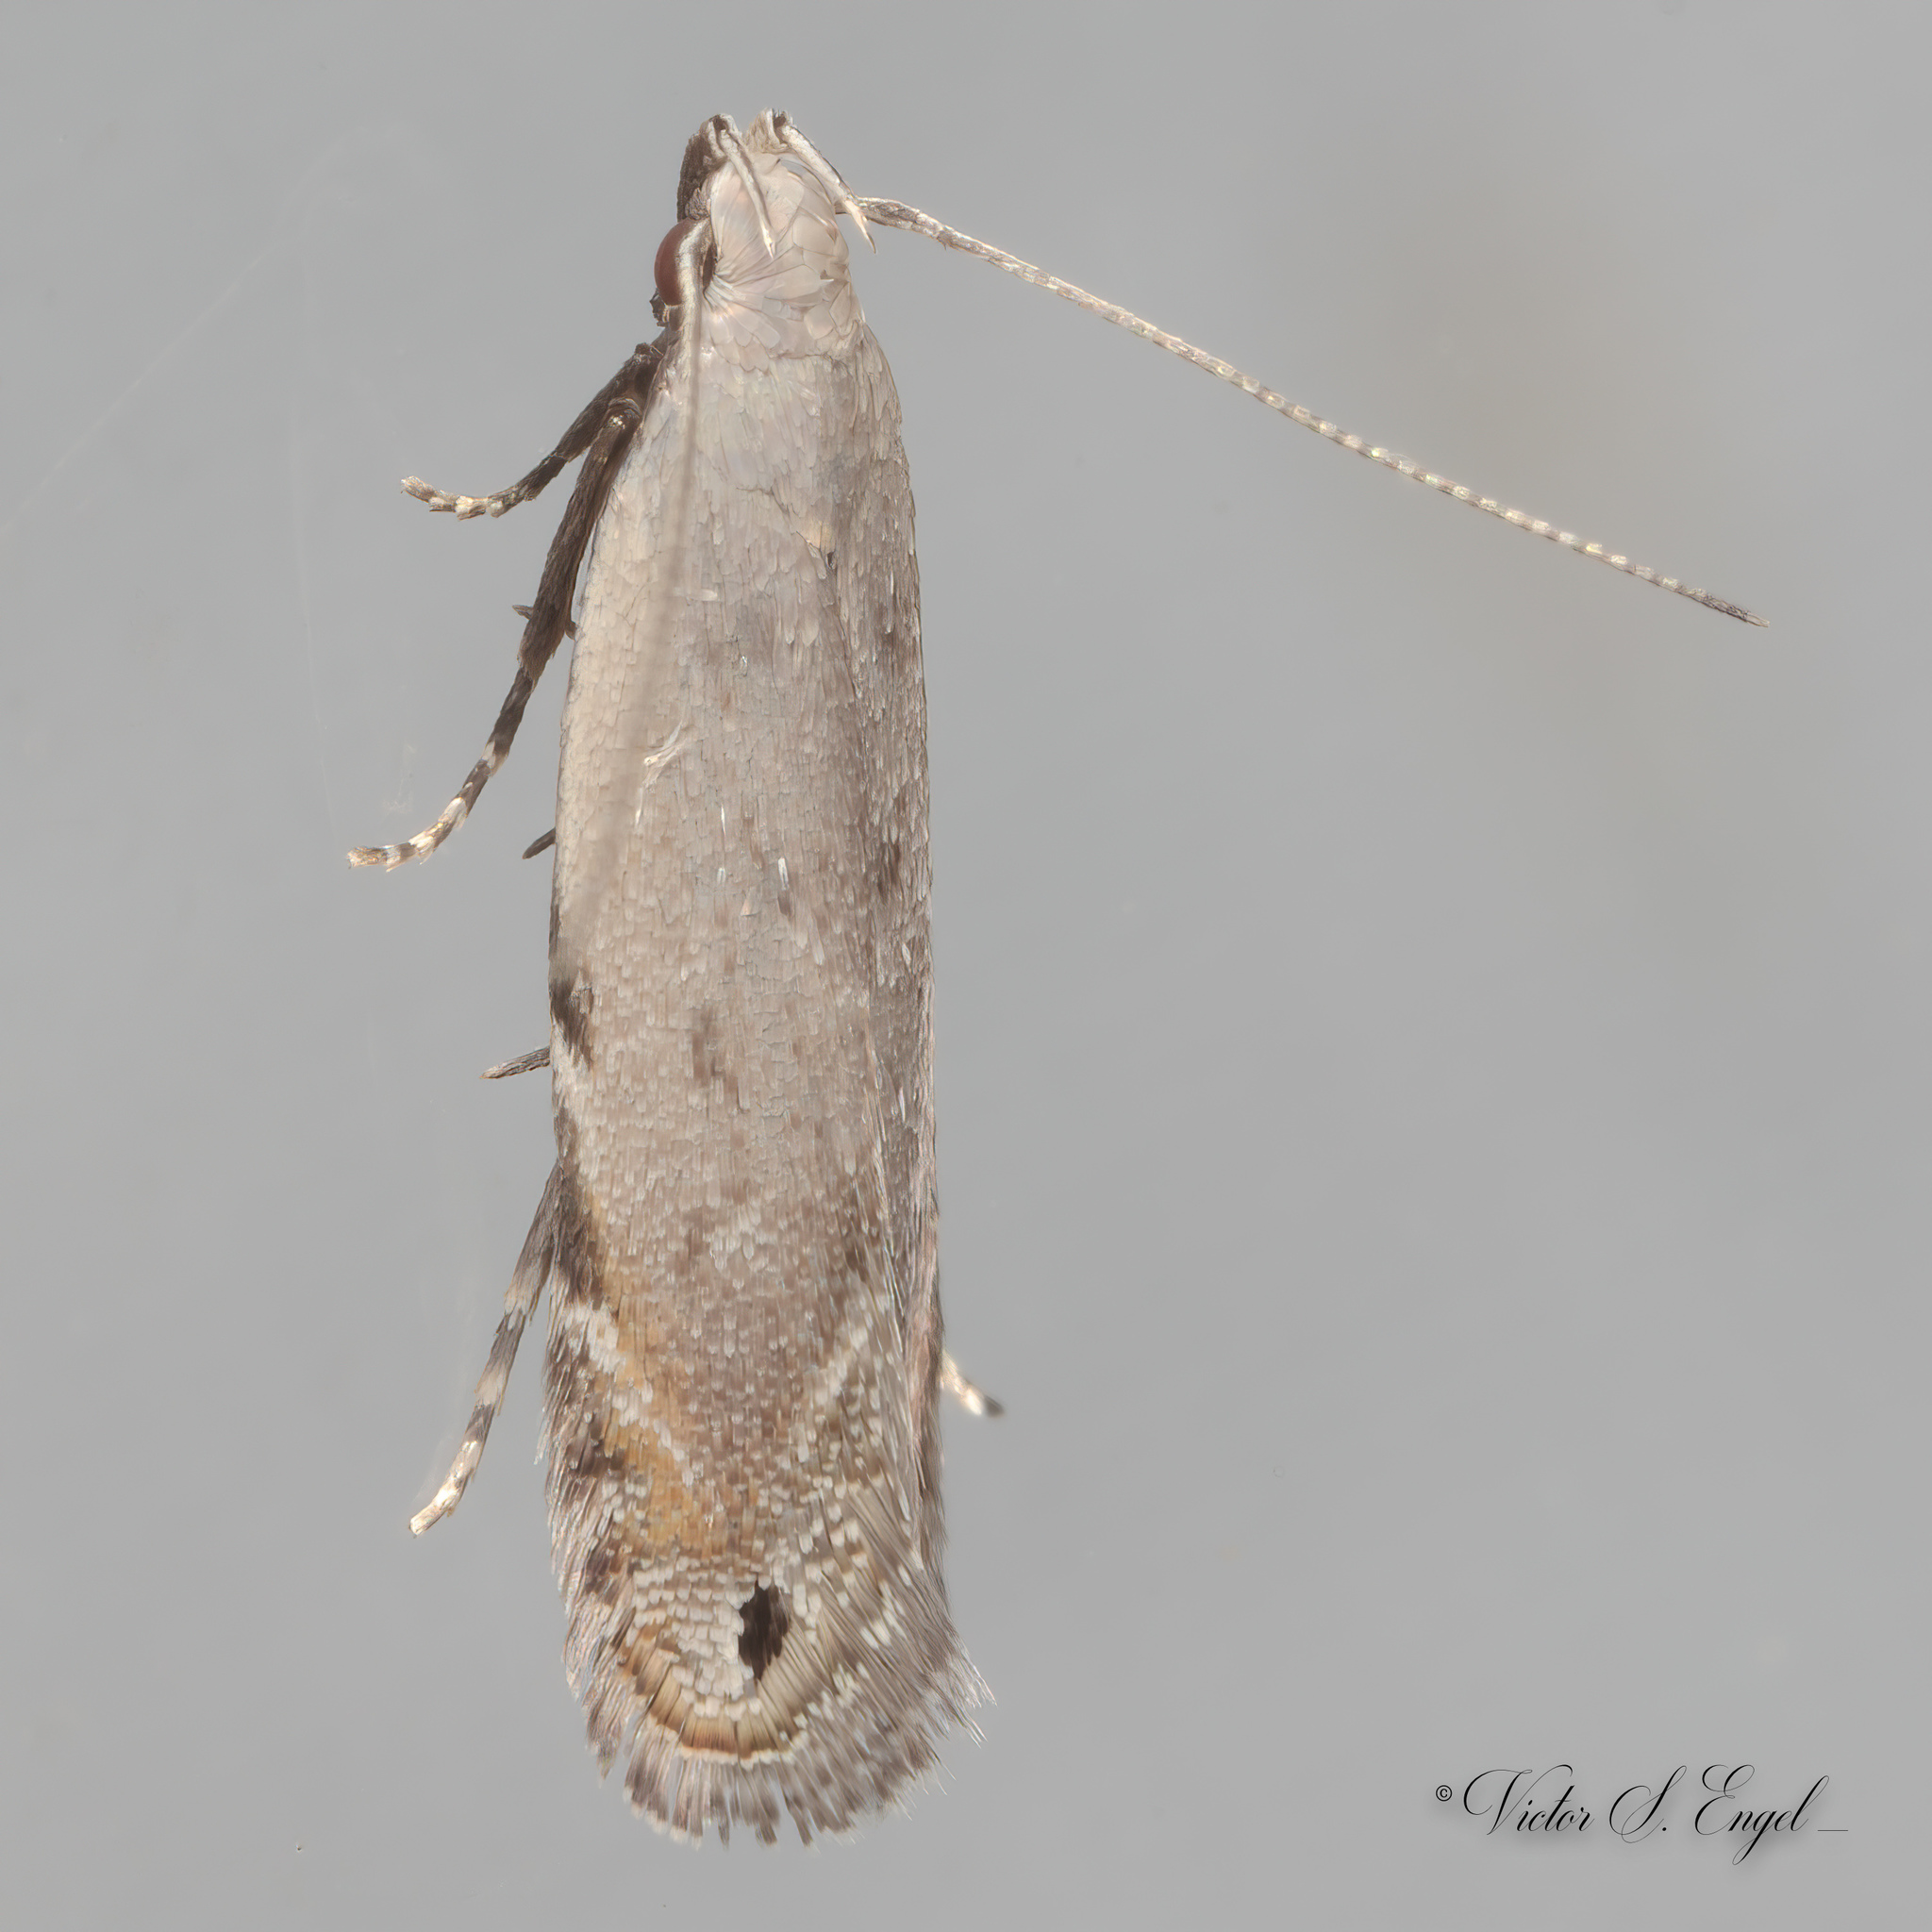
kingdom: Animalia
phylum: Arthropoda
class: Insecta
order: Lepidoptera
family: Gelechiidae
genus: Battaristis
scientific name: Battaristis concinnusella
